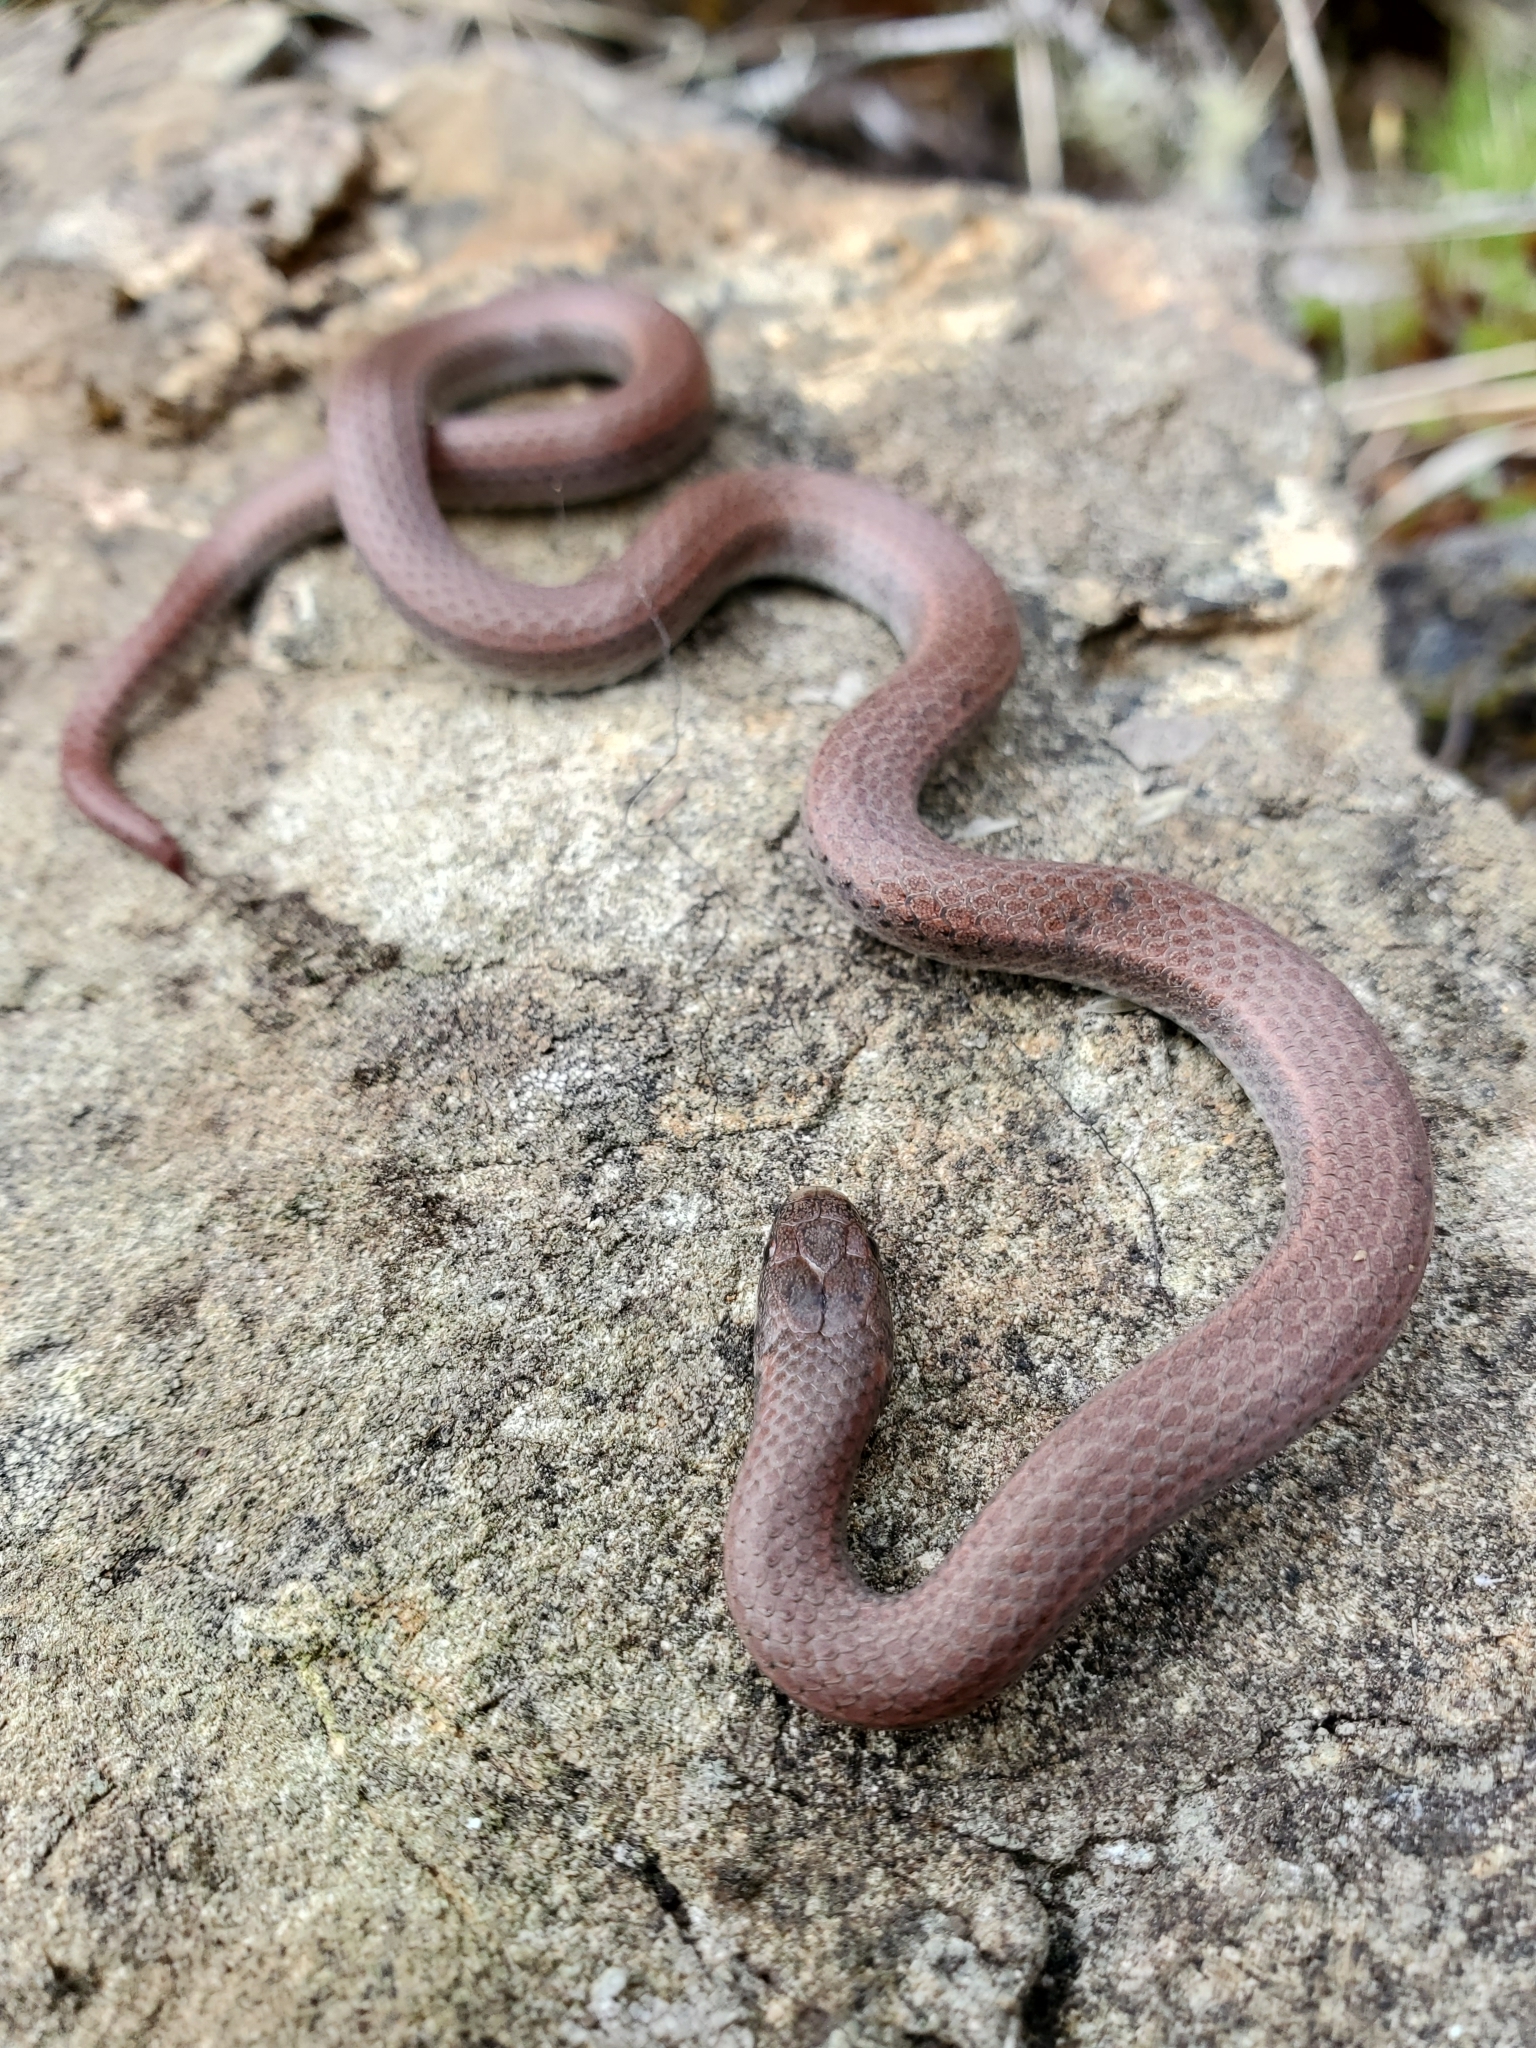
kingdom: Animalia
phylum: Chordata
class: Squamata
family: Colubridae
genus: Contia
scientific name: Contia tenuis
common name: Sharptail snake
